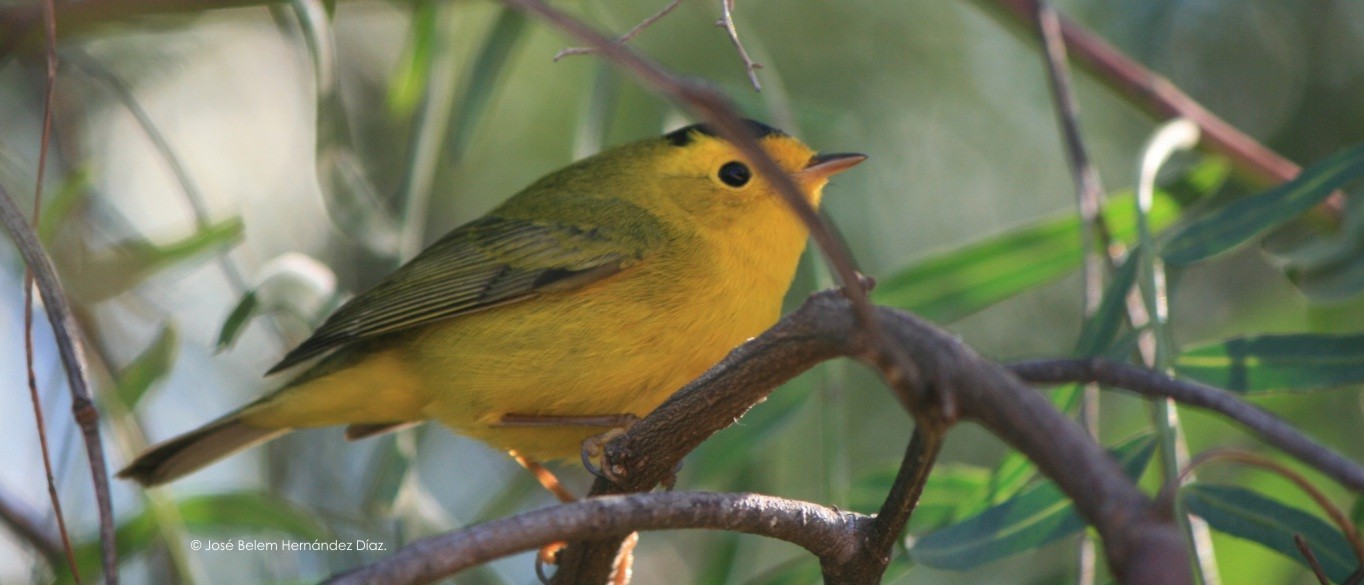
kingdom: Animalia
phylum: Chordata
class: Aves
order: Passeriformes
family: Parulidae
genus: Cardellina
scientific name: Cardellina pusilla
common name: Wilson's warbler
